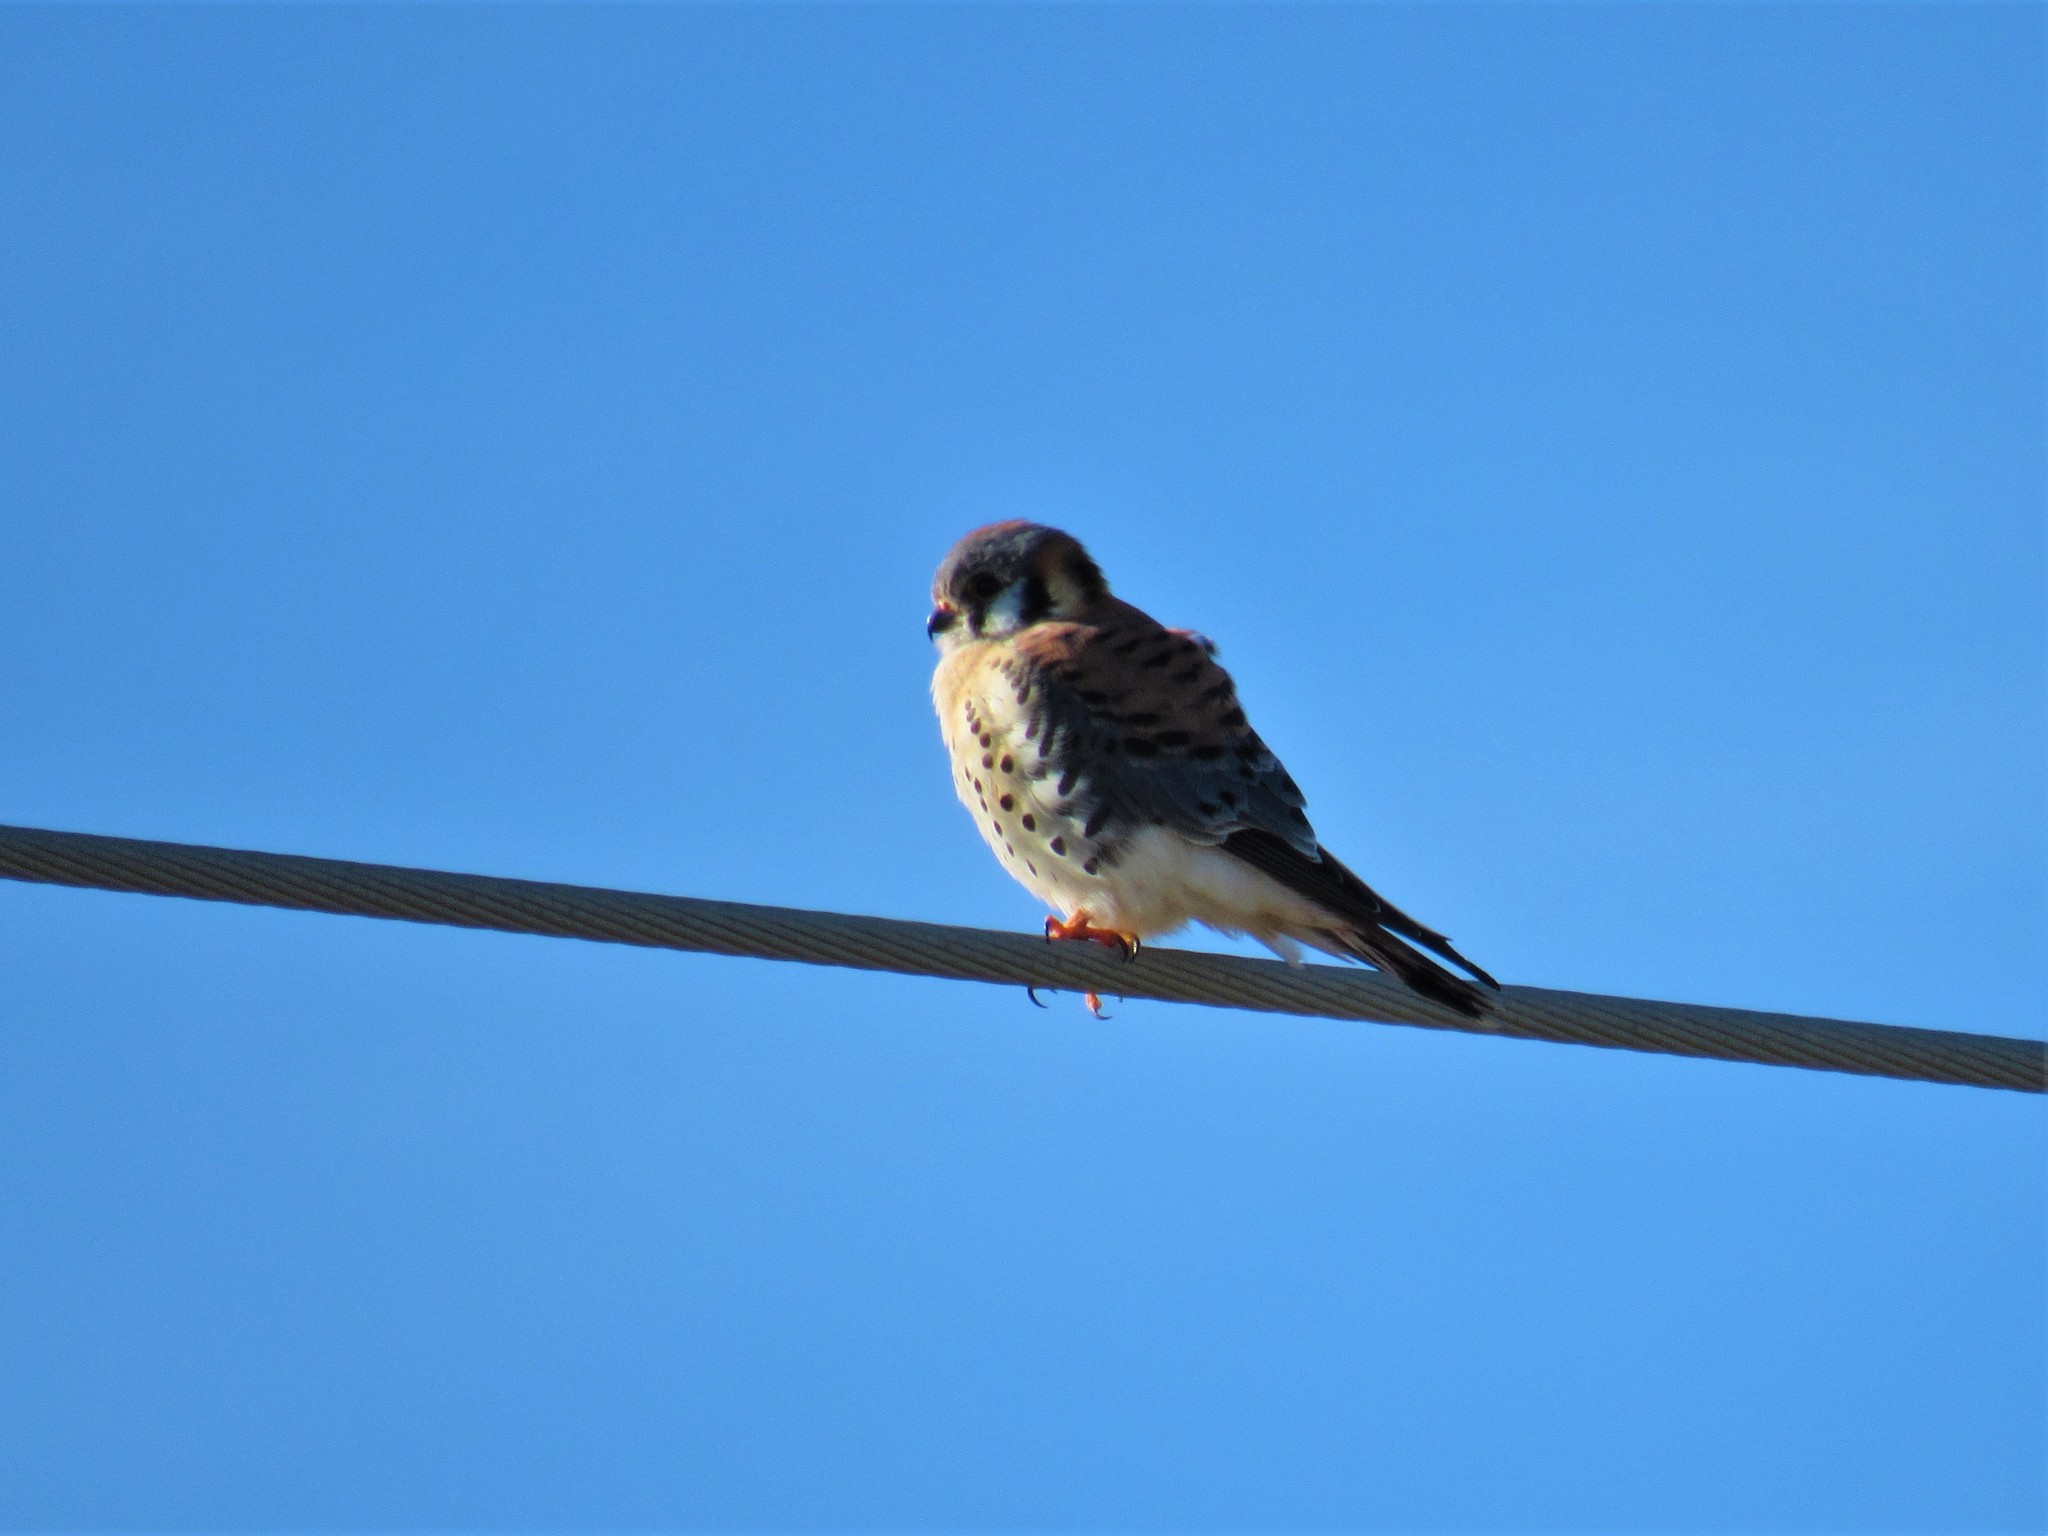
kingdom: Animalia
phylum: Chordata
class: Aves
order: Falconiformes
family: Falconidae
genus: Falco
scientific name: Falco sparverius
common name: American kestrel
